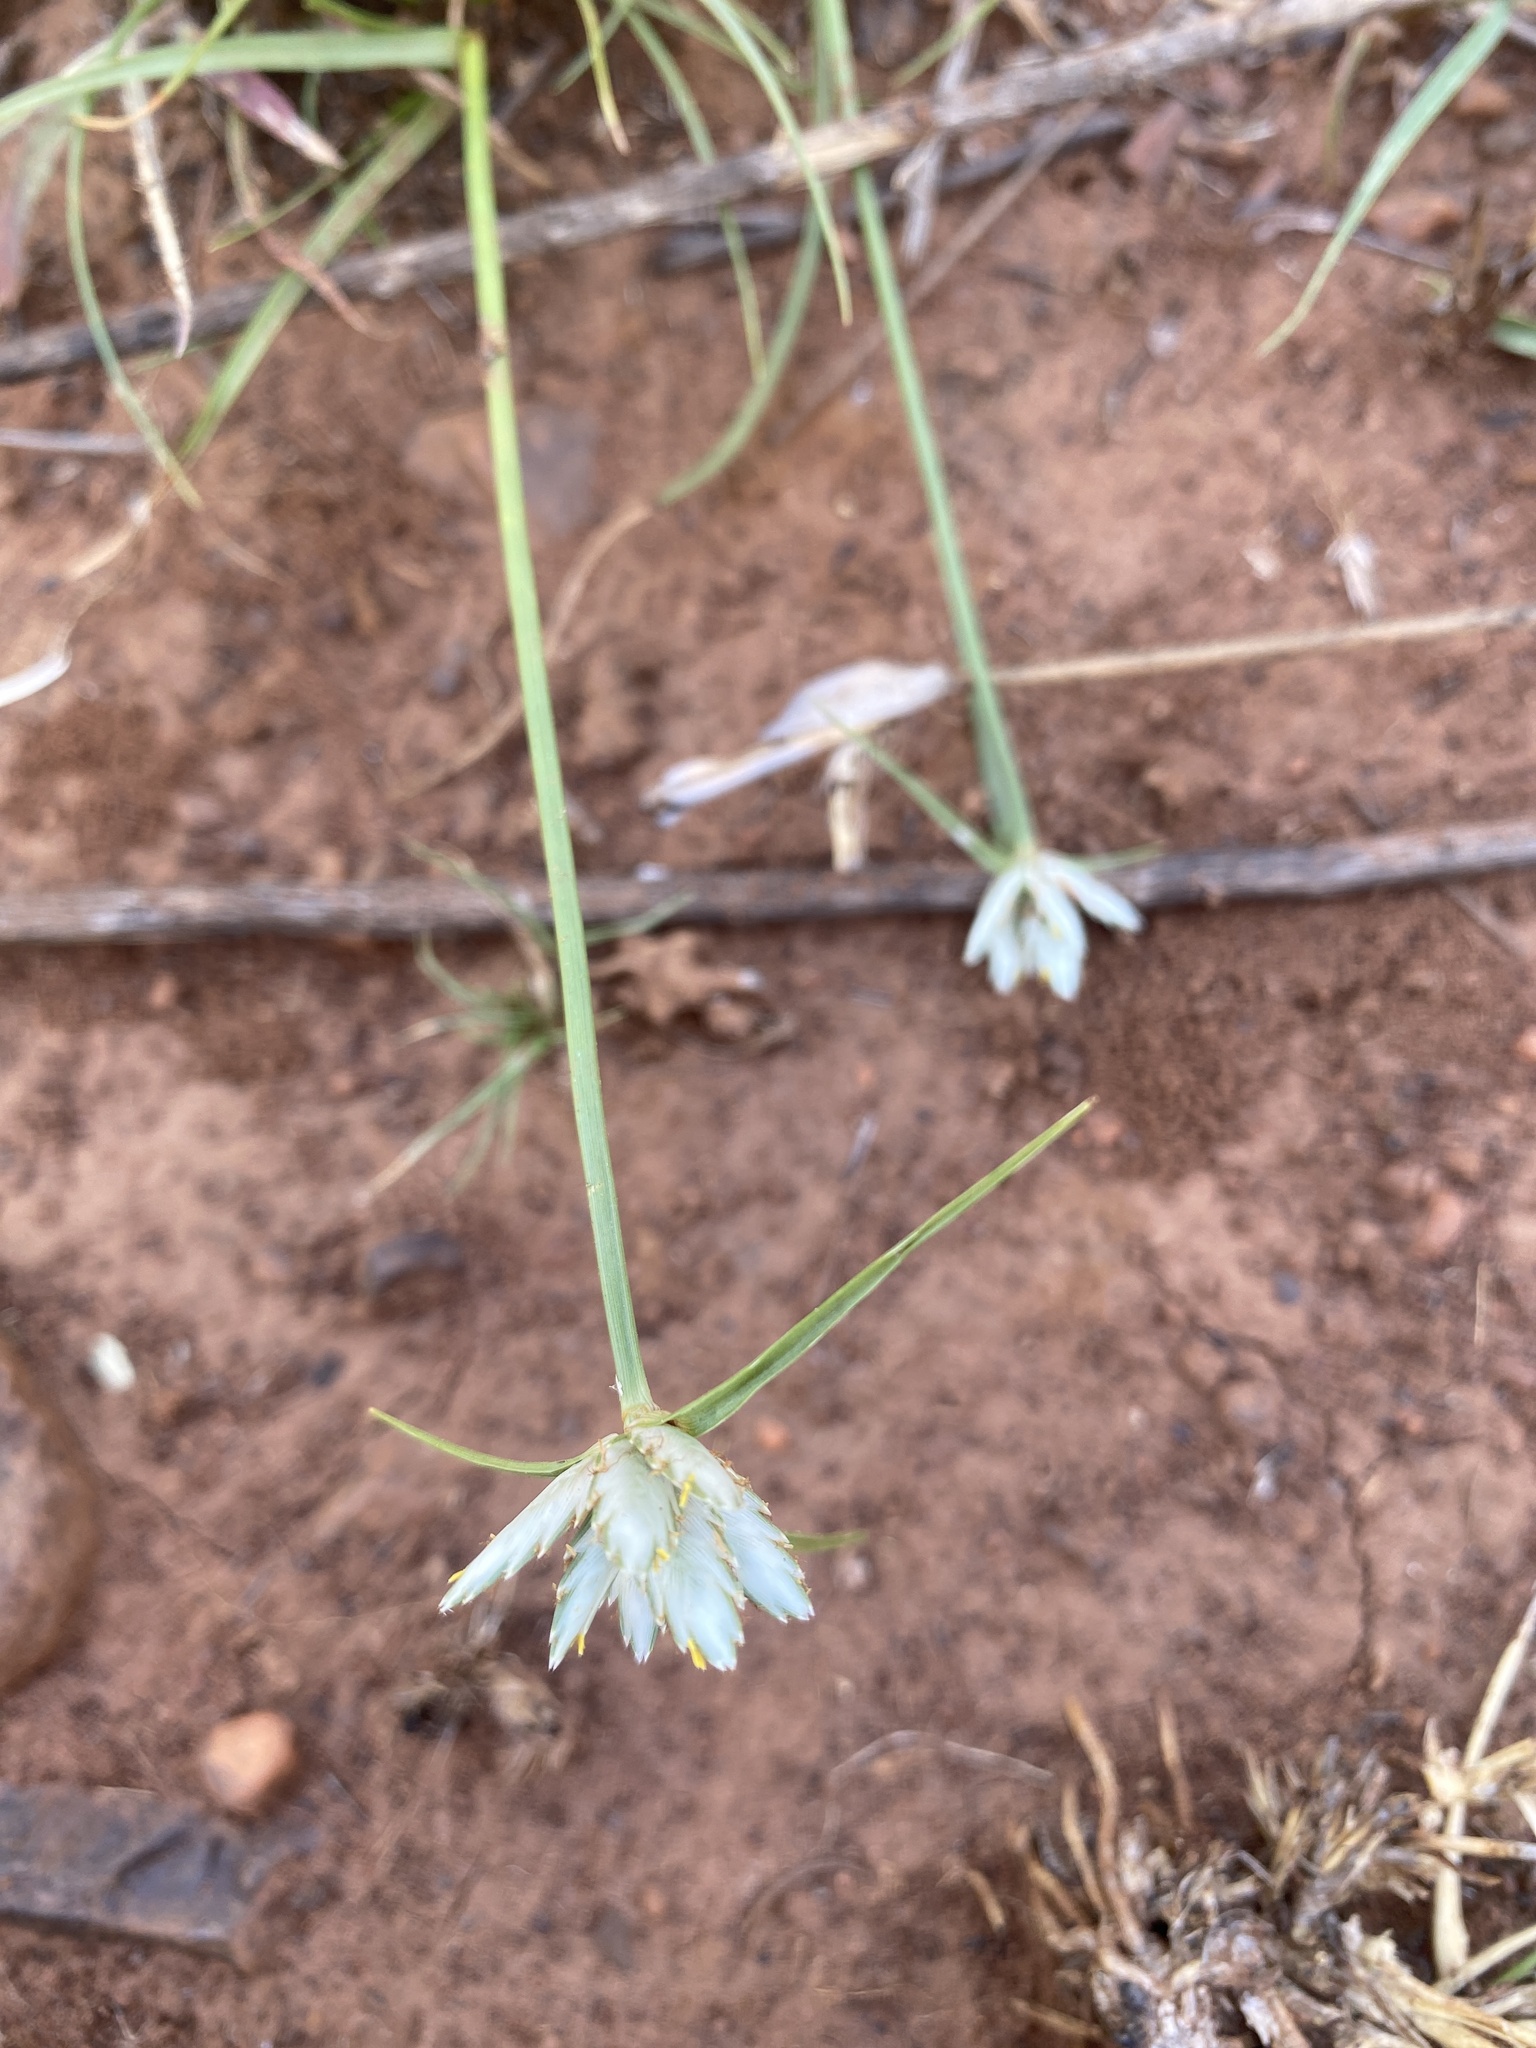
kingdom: Plantae
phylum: Tracheophyta
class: Liliopsida
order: Poales
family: Cyperaceae
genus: Cyperus
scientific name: Cyperus margaritaceus
